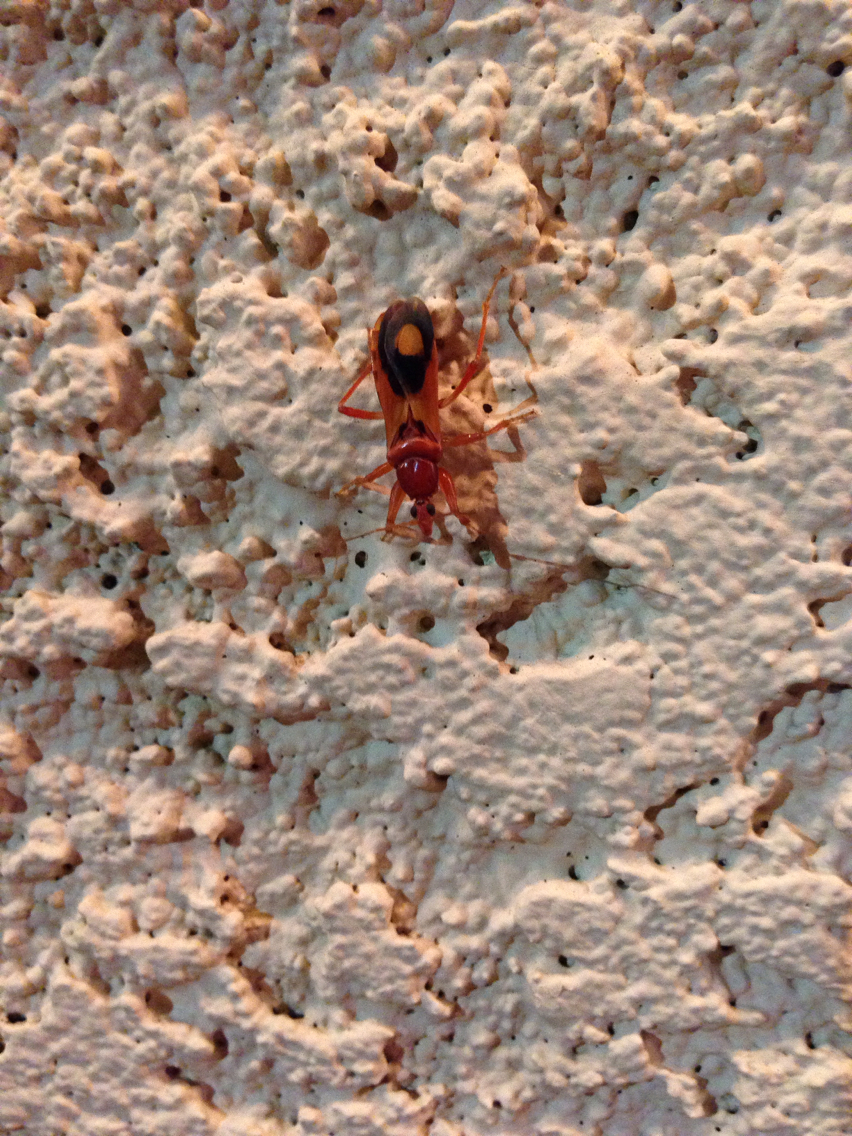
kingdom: Animalia
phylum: Arthropoda
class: Insecta
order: Hemiptera
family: Reduviidae
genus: Rasahus
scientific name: Rasahus thoracicus
